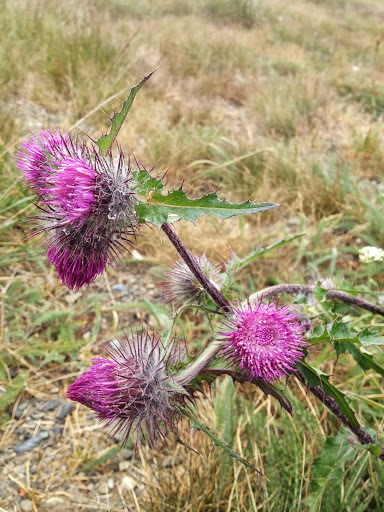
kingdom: Plantae
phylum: Tracheophyta
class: Magnoliopsida
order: Asterales
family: Asteraceae
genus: Cirsium
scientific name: Cirsium edule
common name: Indian thistle
